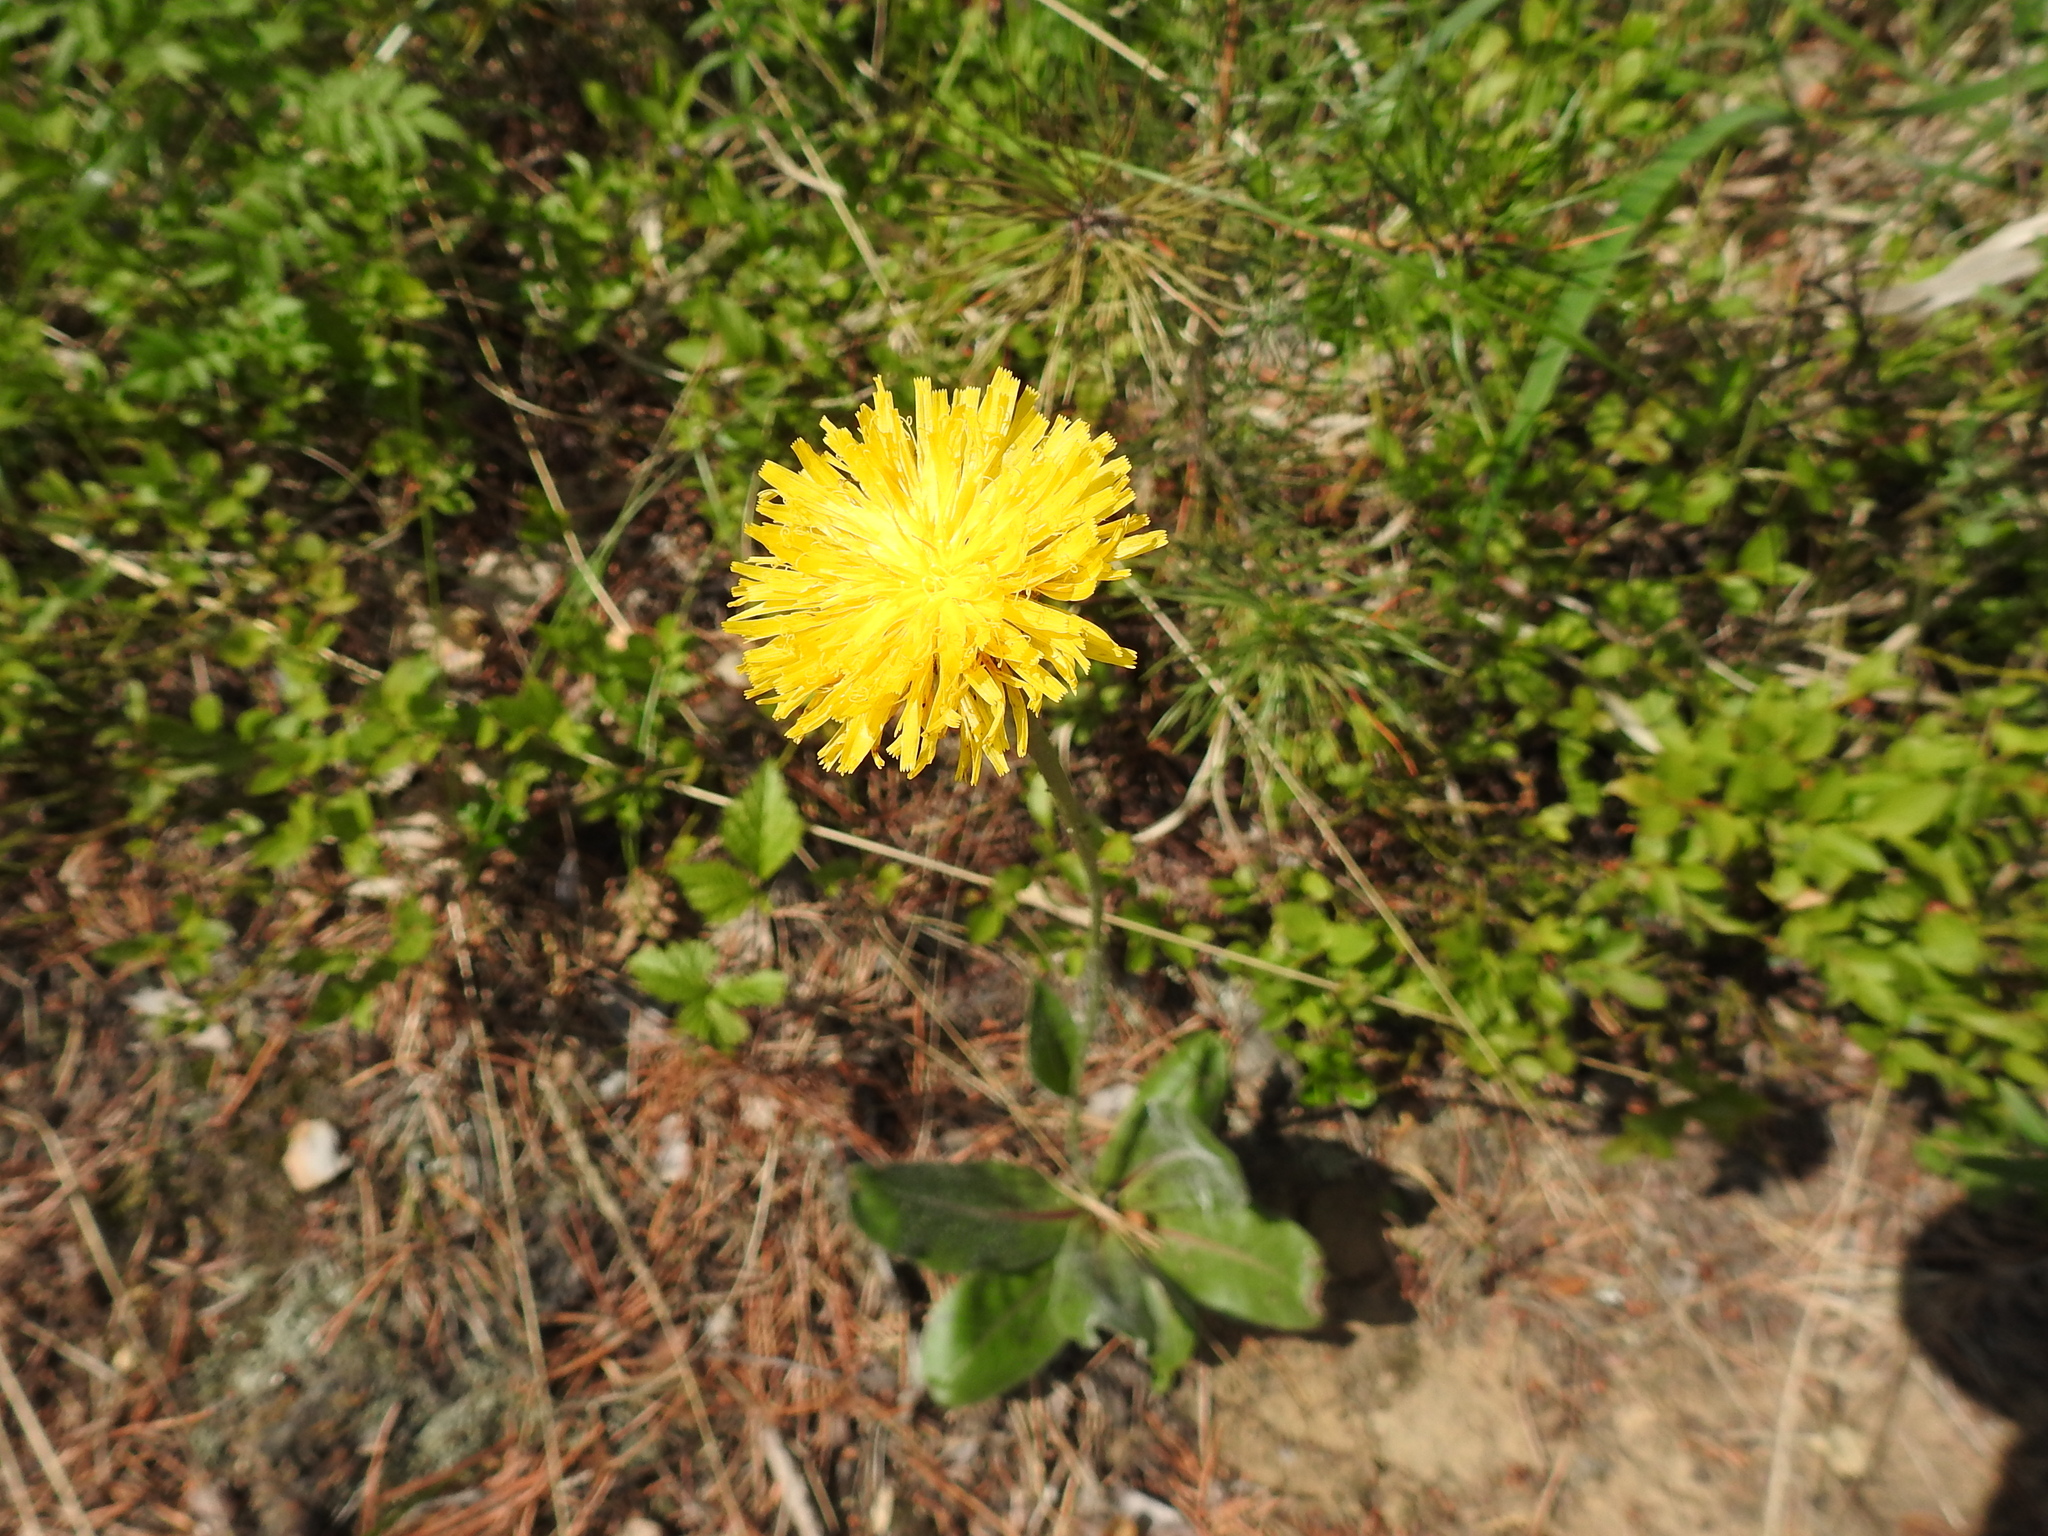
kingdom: Plantae
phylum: Tracheophyta
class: Magnoliopsida
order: Asterales
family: Asteraceae
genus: Trommsdorffia
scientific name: Trommsdorffia maculata
